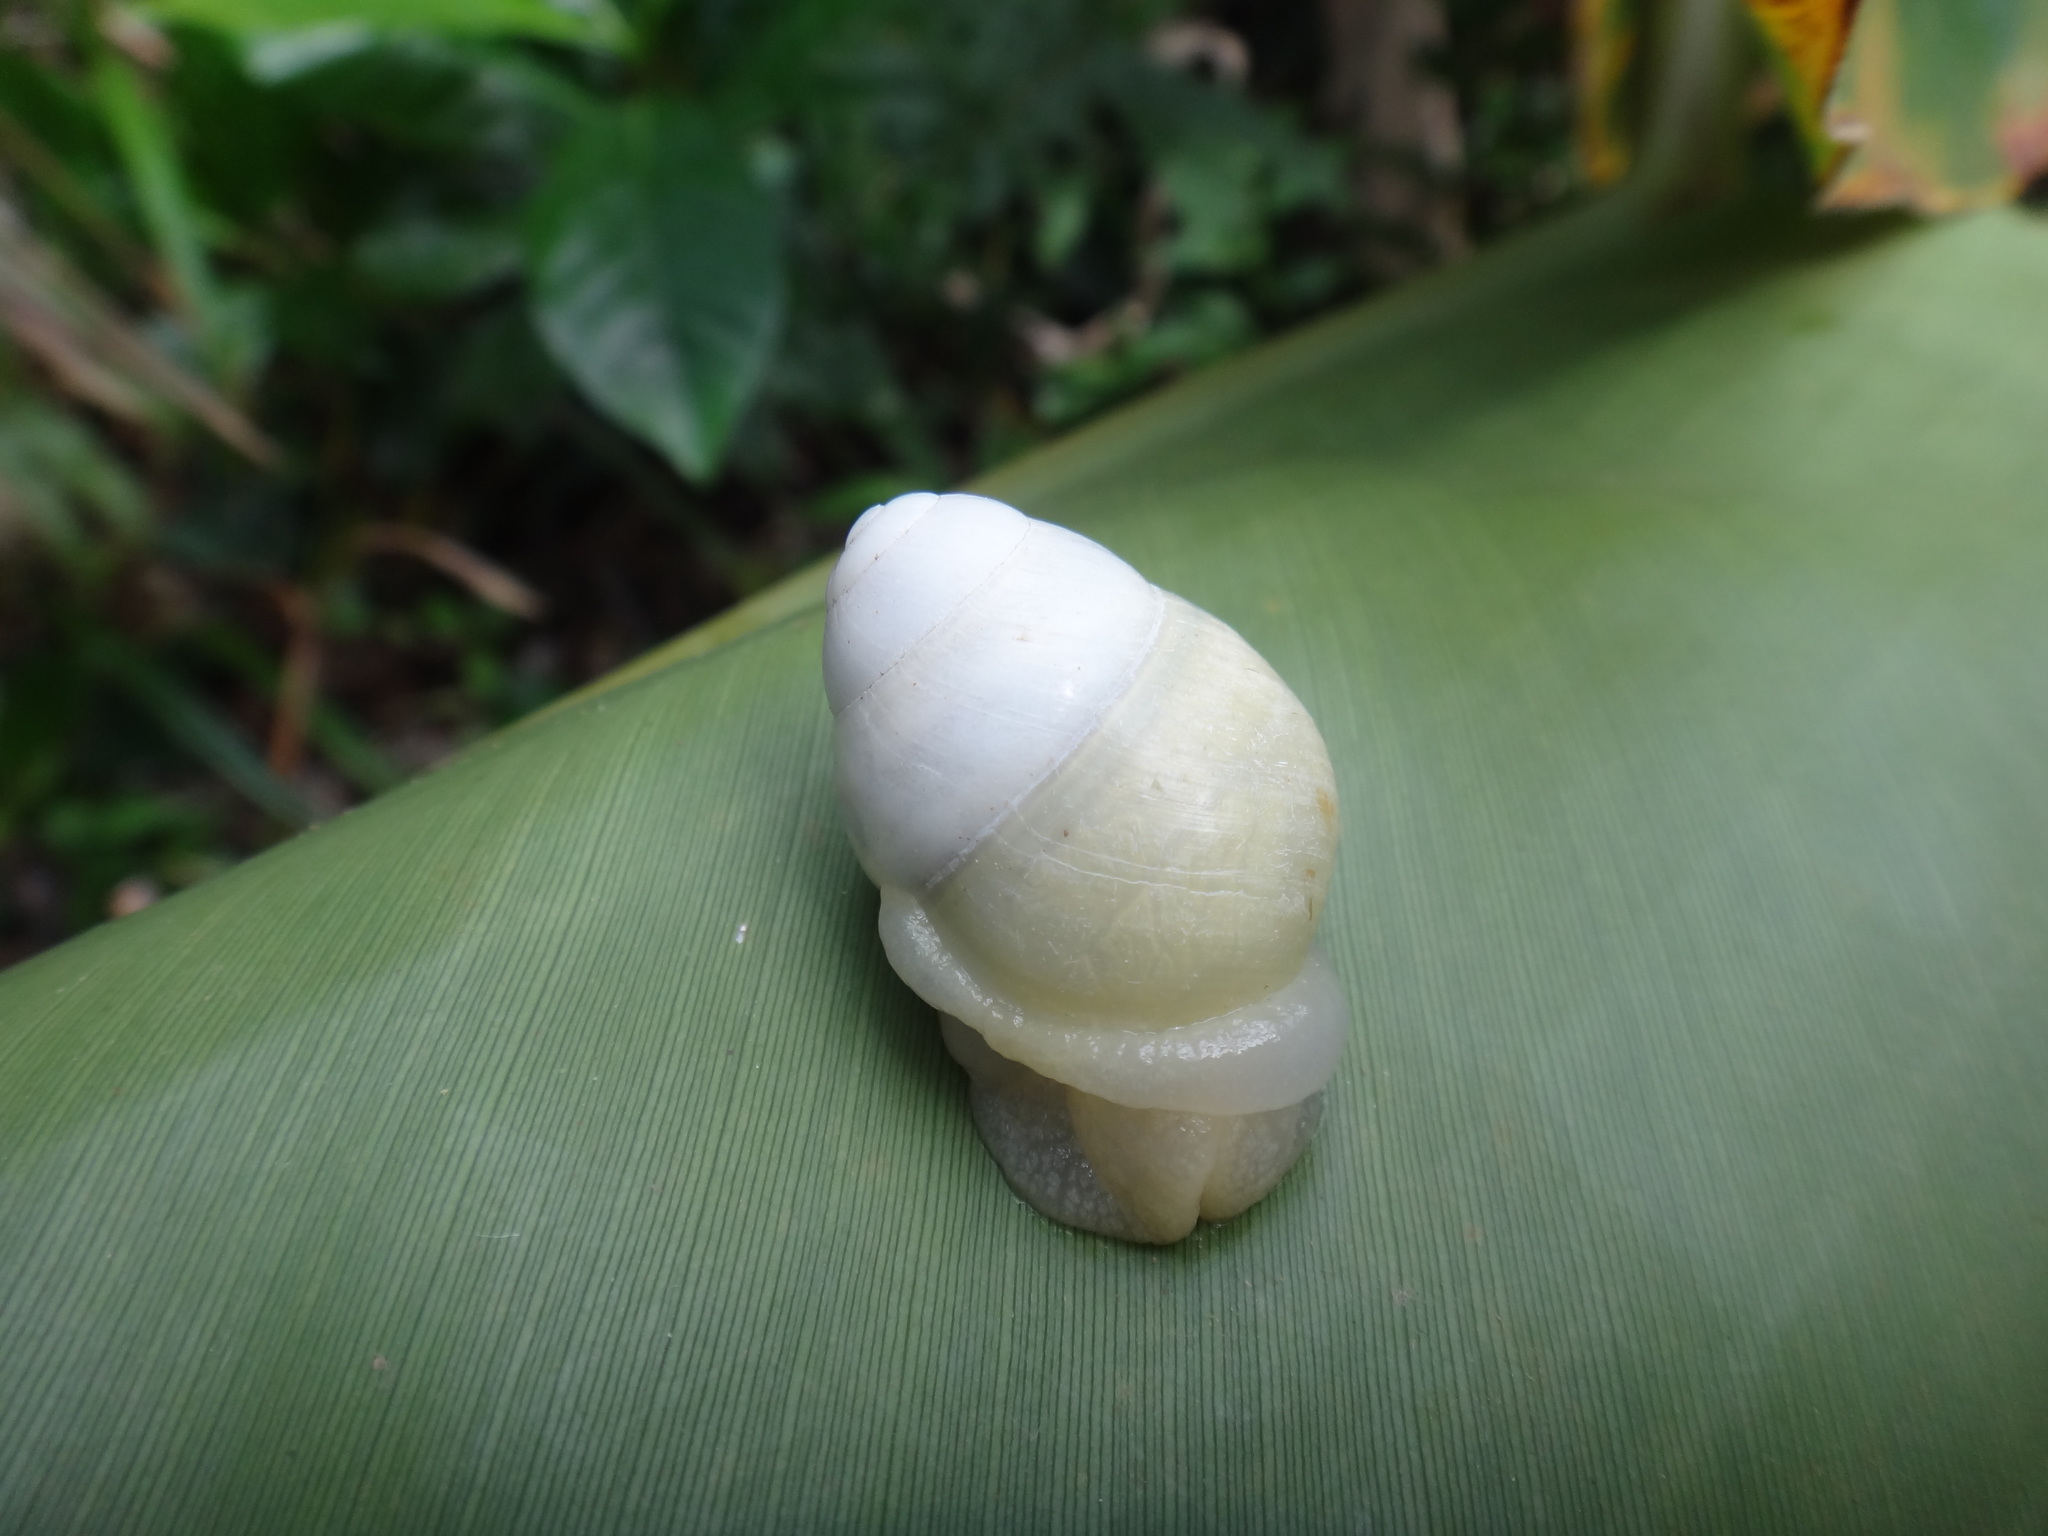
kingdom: Animalia
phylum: Mollusca
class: Gastropoda
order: Stylommatophora
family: Camaenidae
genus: Helicostyla
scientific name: Helicostyla okadai
